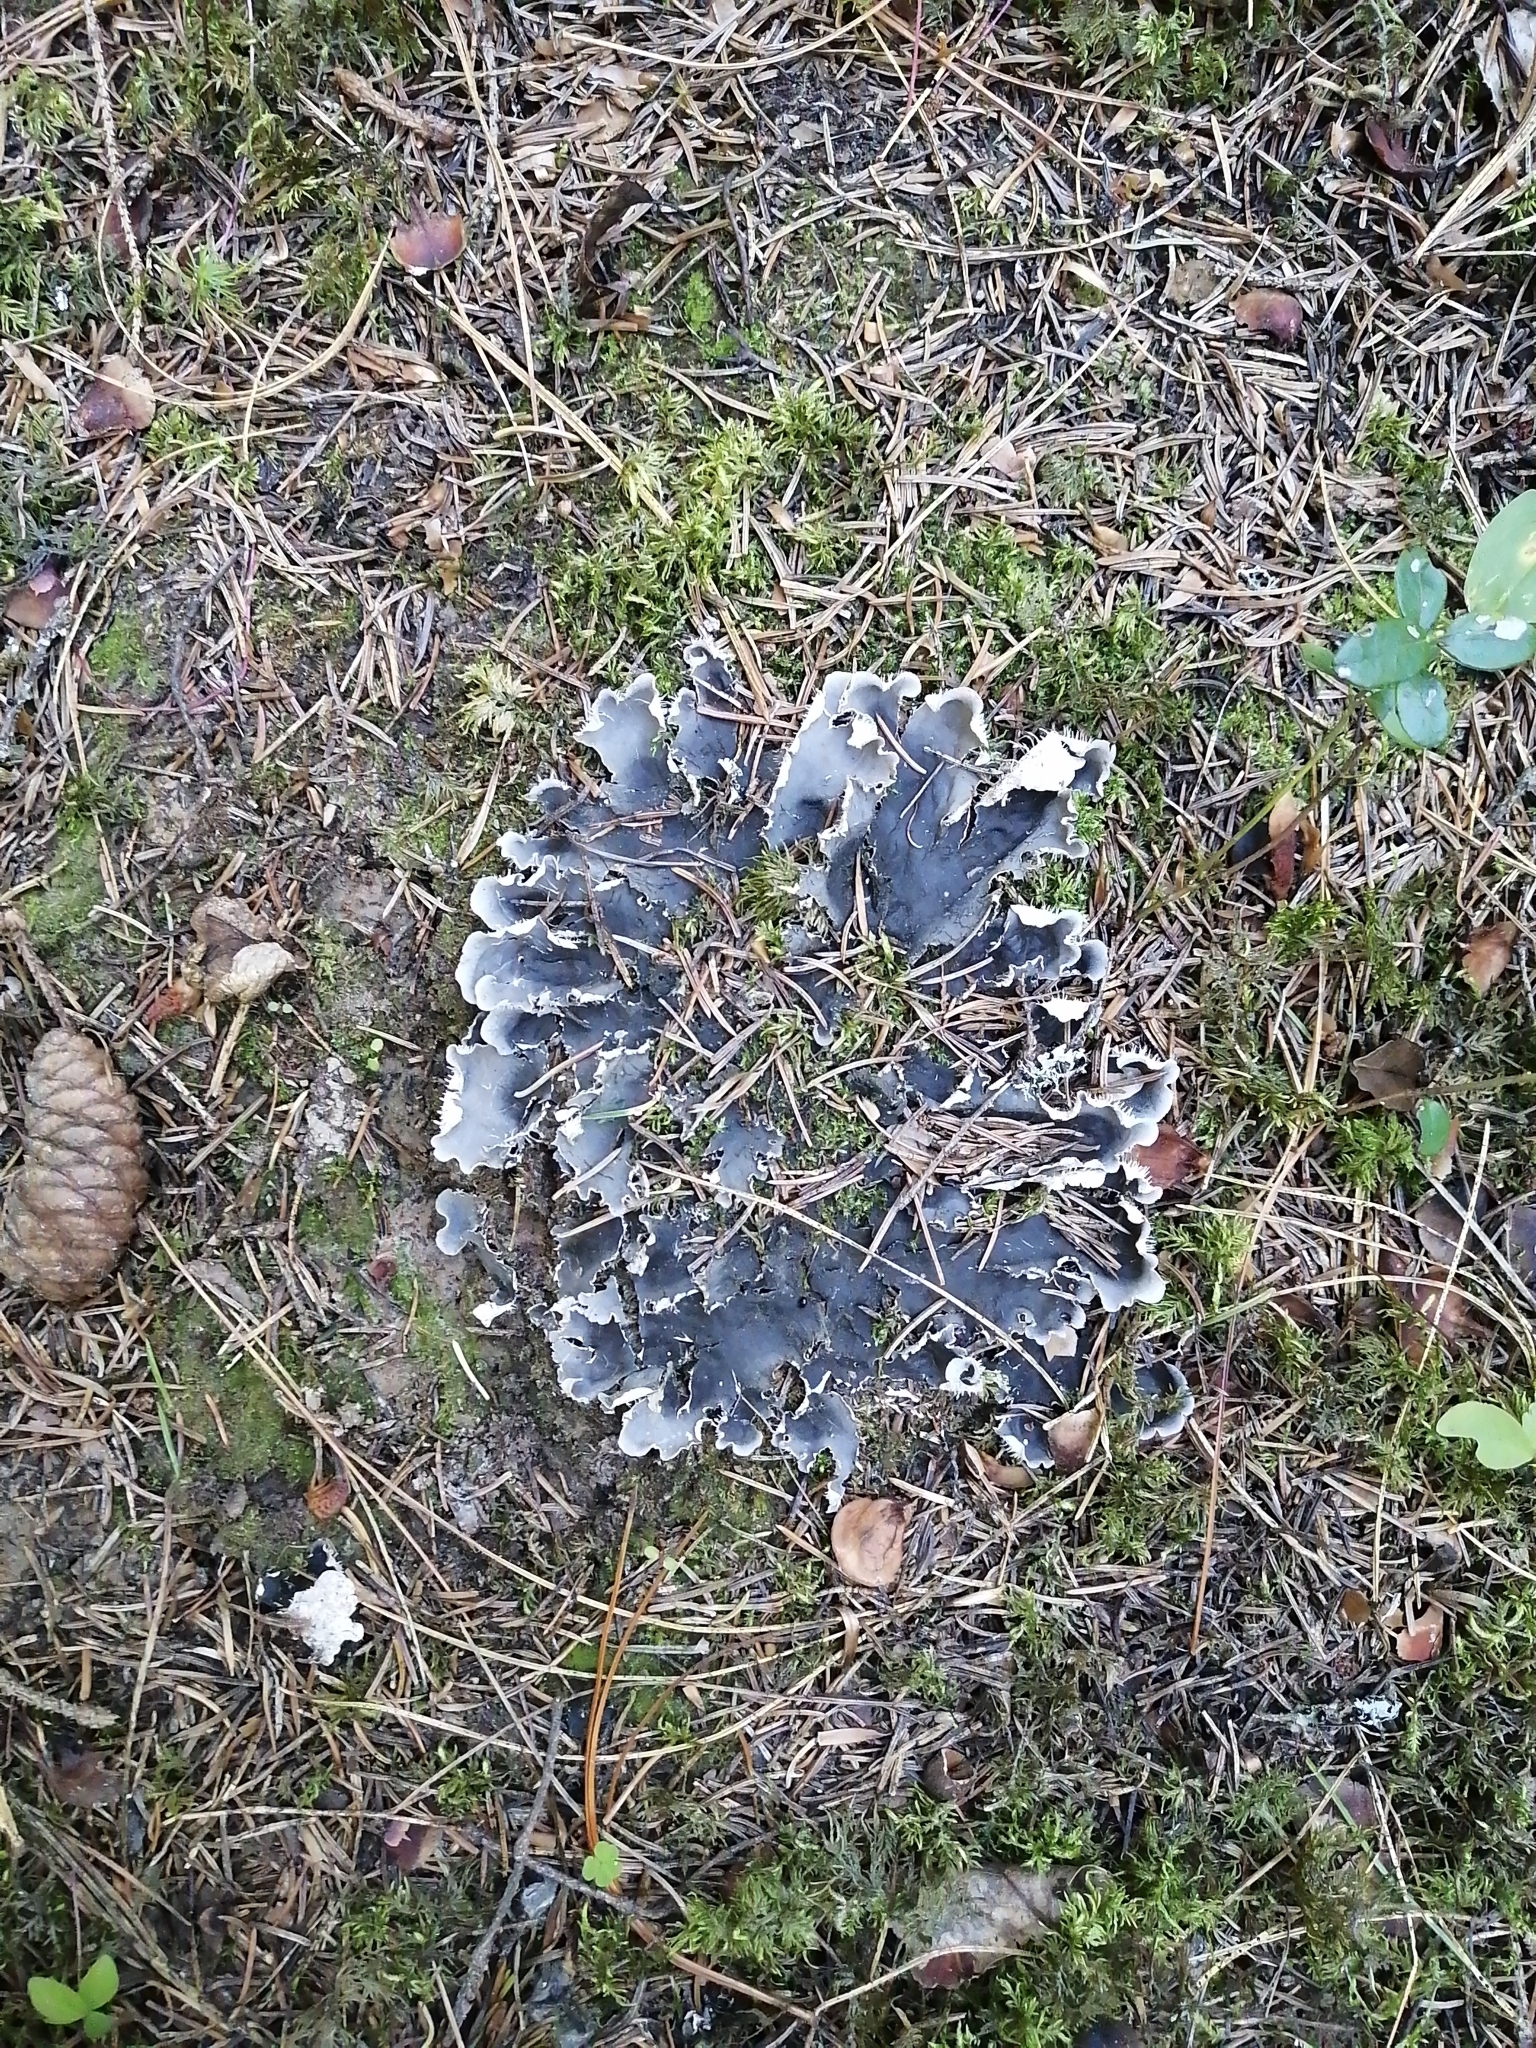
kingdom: Fungi
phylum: Ascomycota
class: Lecanoromycetes
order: Peltigerales
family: Peltigeraceae
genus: Peltigera
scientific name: Peltigera praetextata
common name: Scaly dog-lichen
